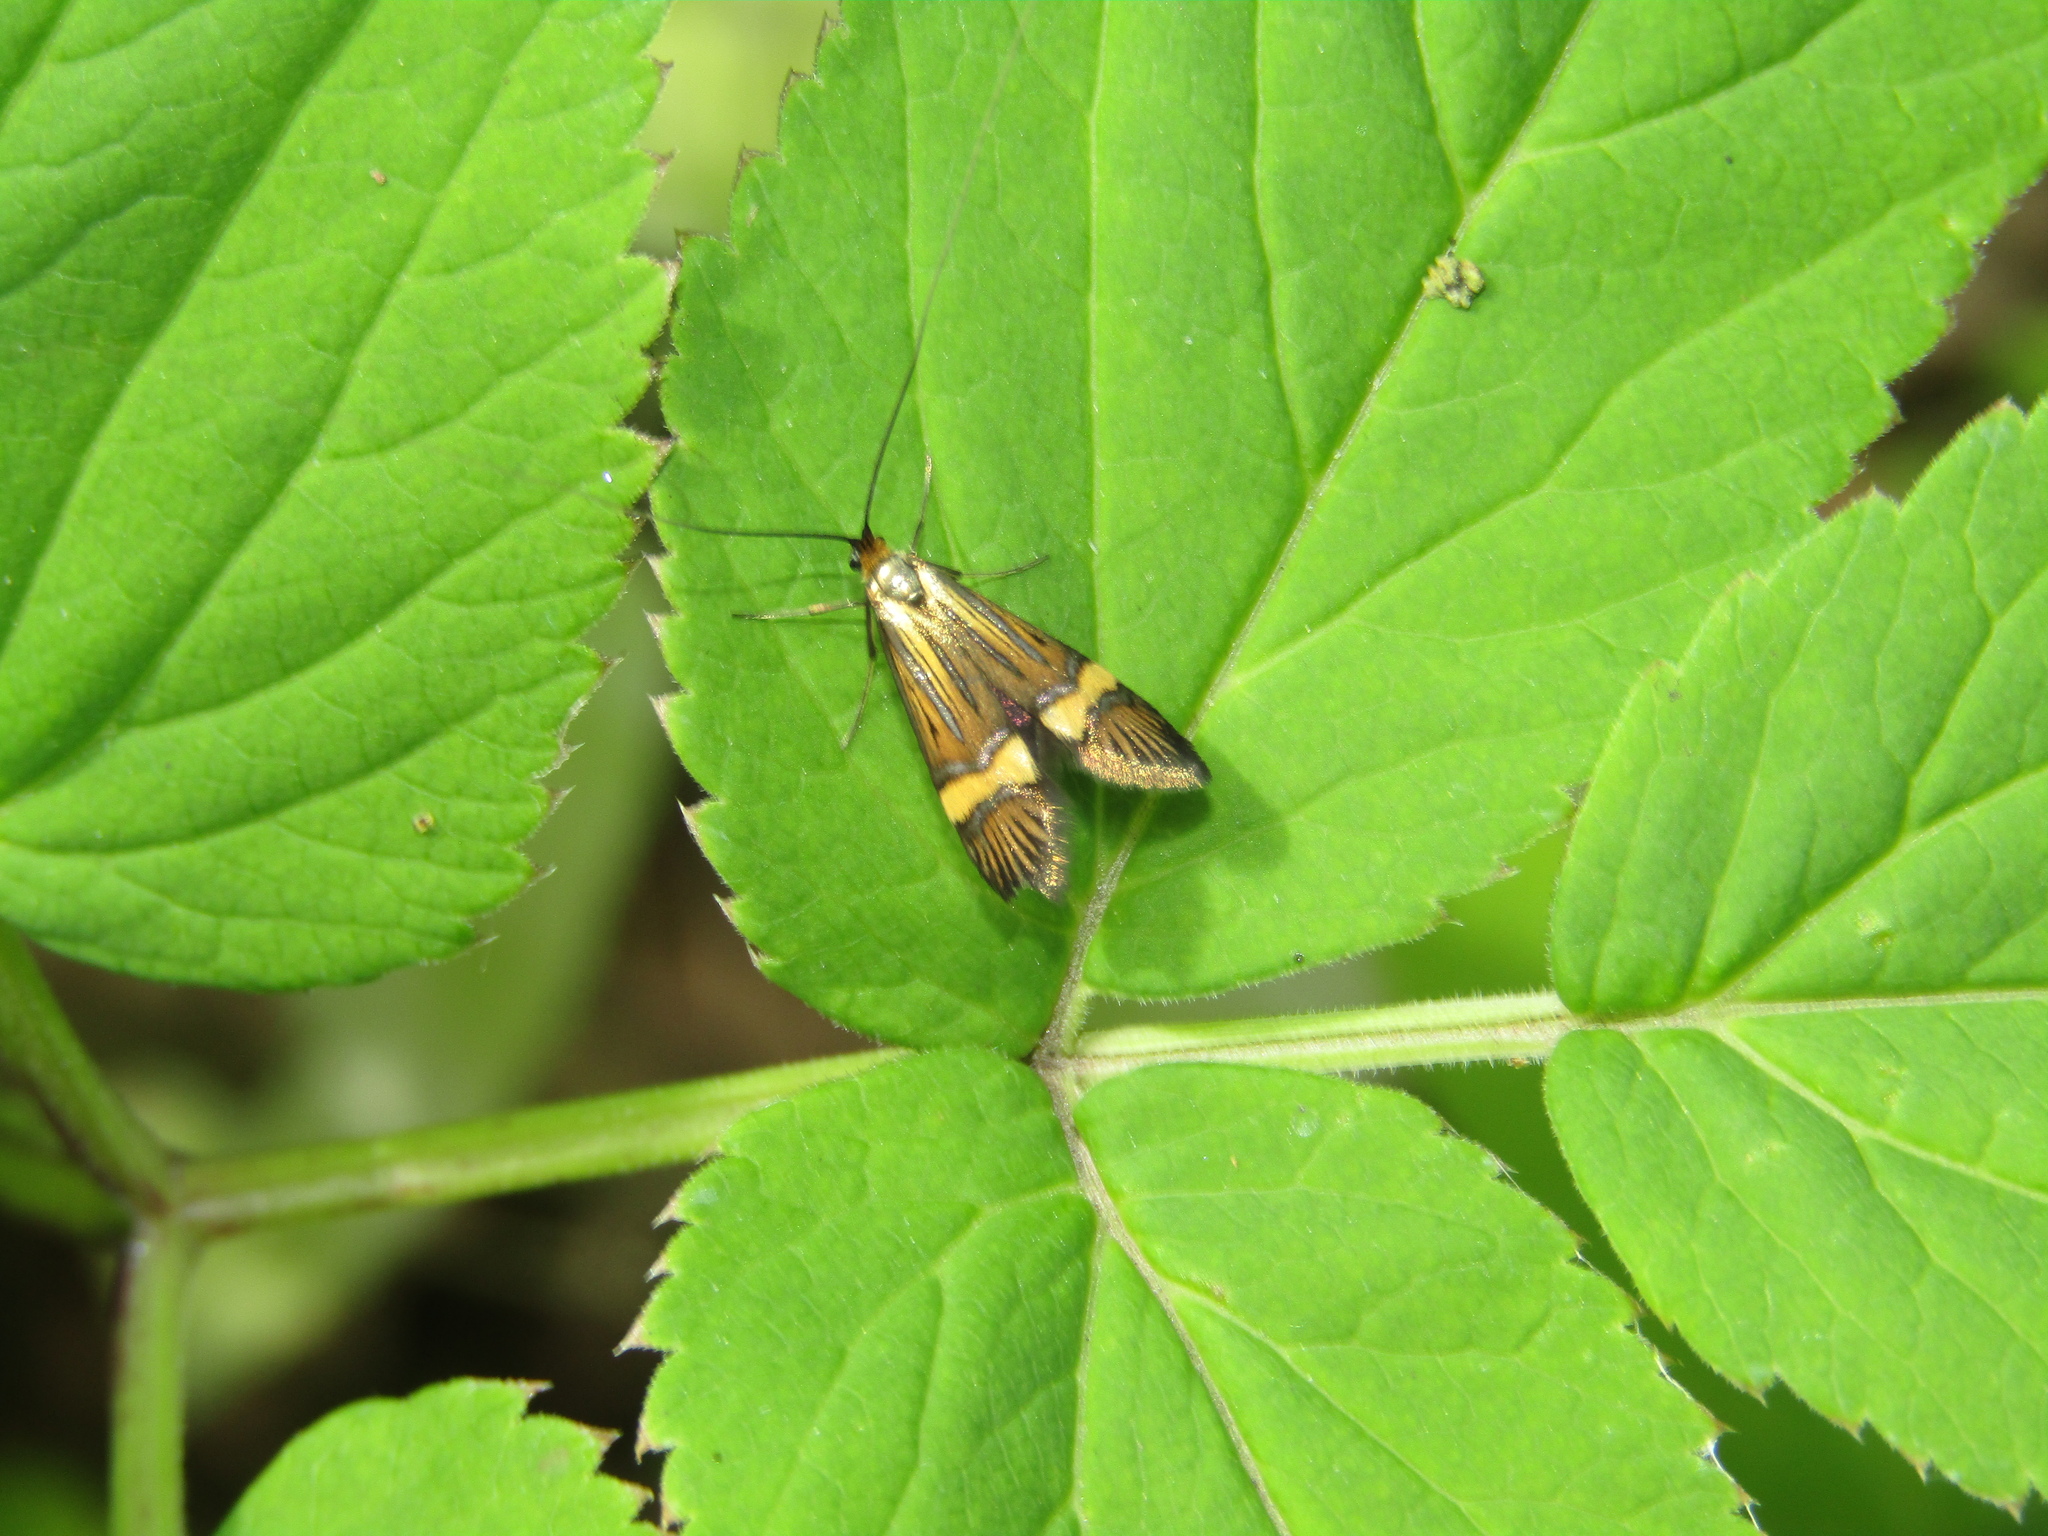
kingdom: Animalia
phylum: Arthropoda
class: Insecta
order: Lepidoptera
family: Adelidae
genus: Nemophora
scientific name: Nemophora degeerella
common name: Yellow-barred long-horn
